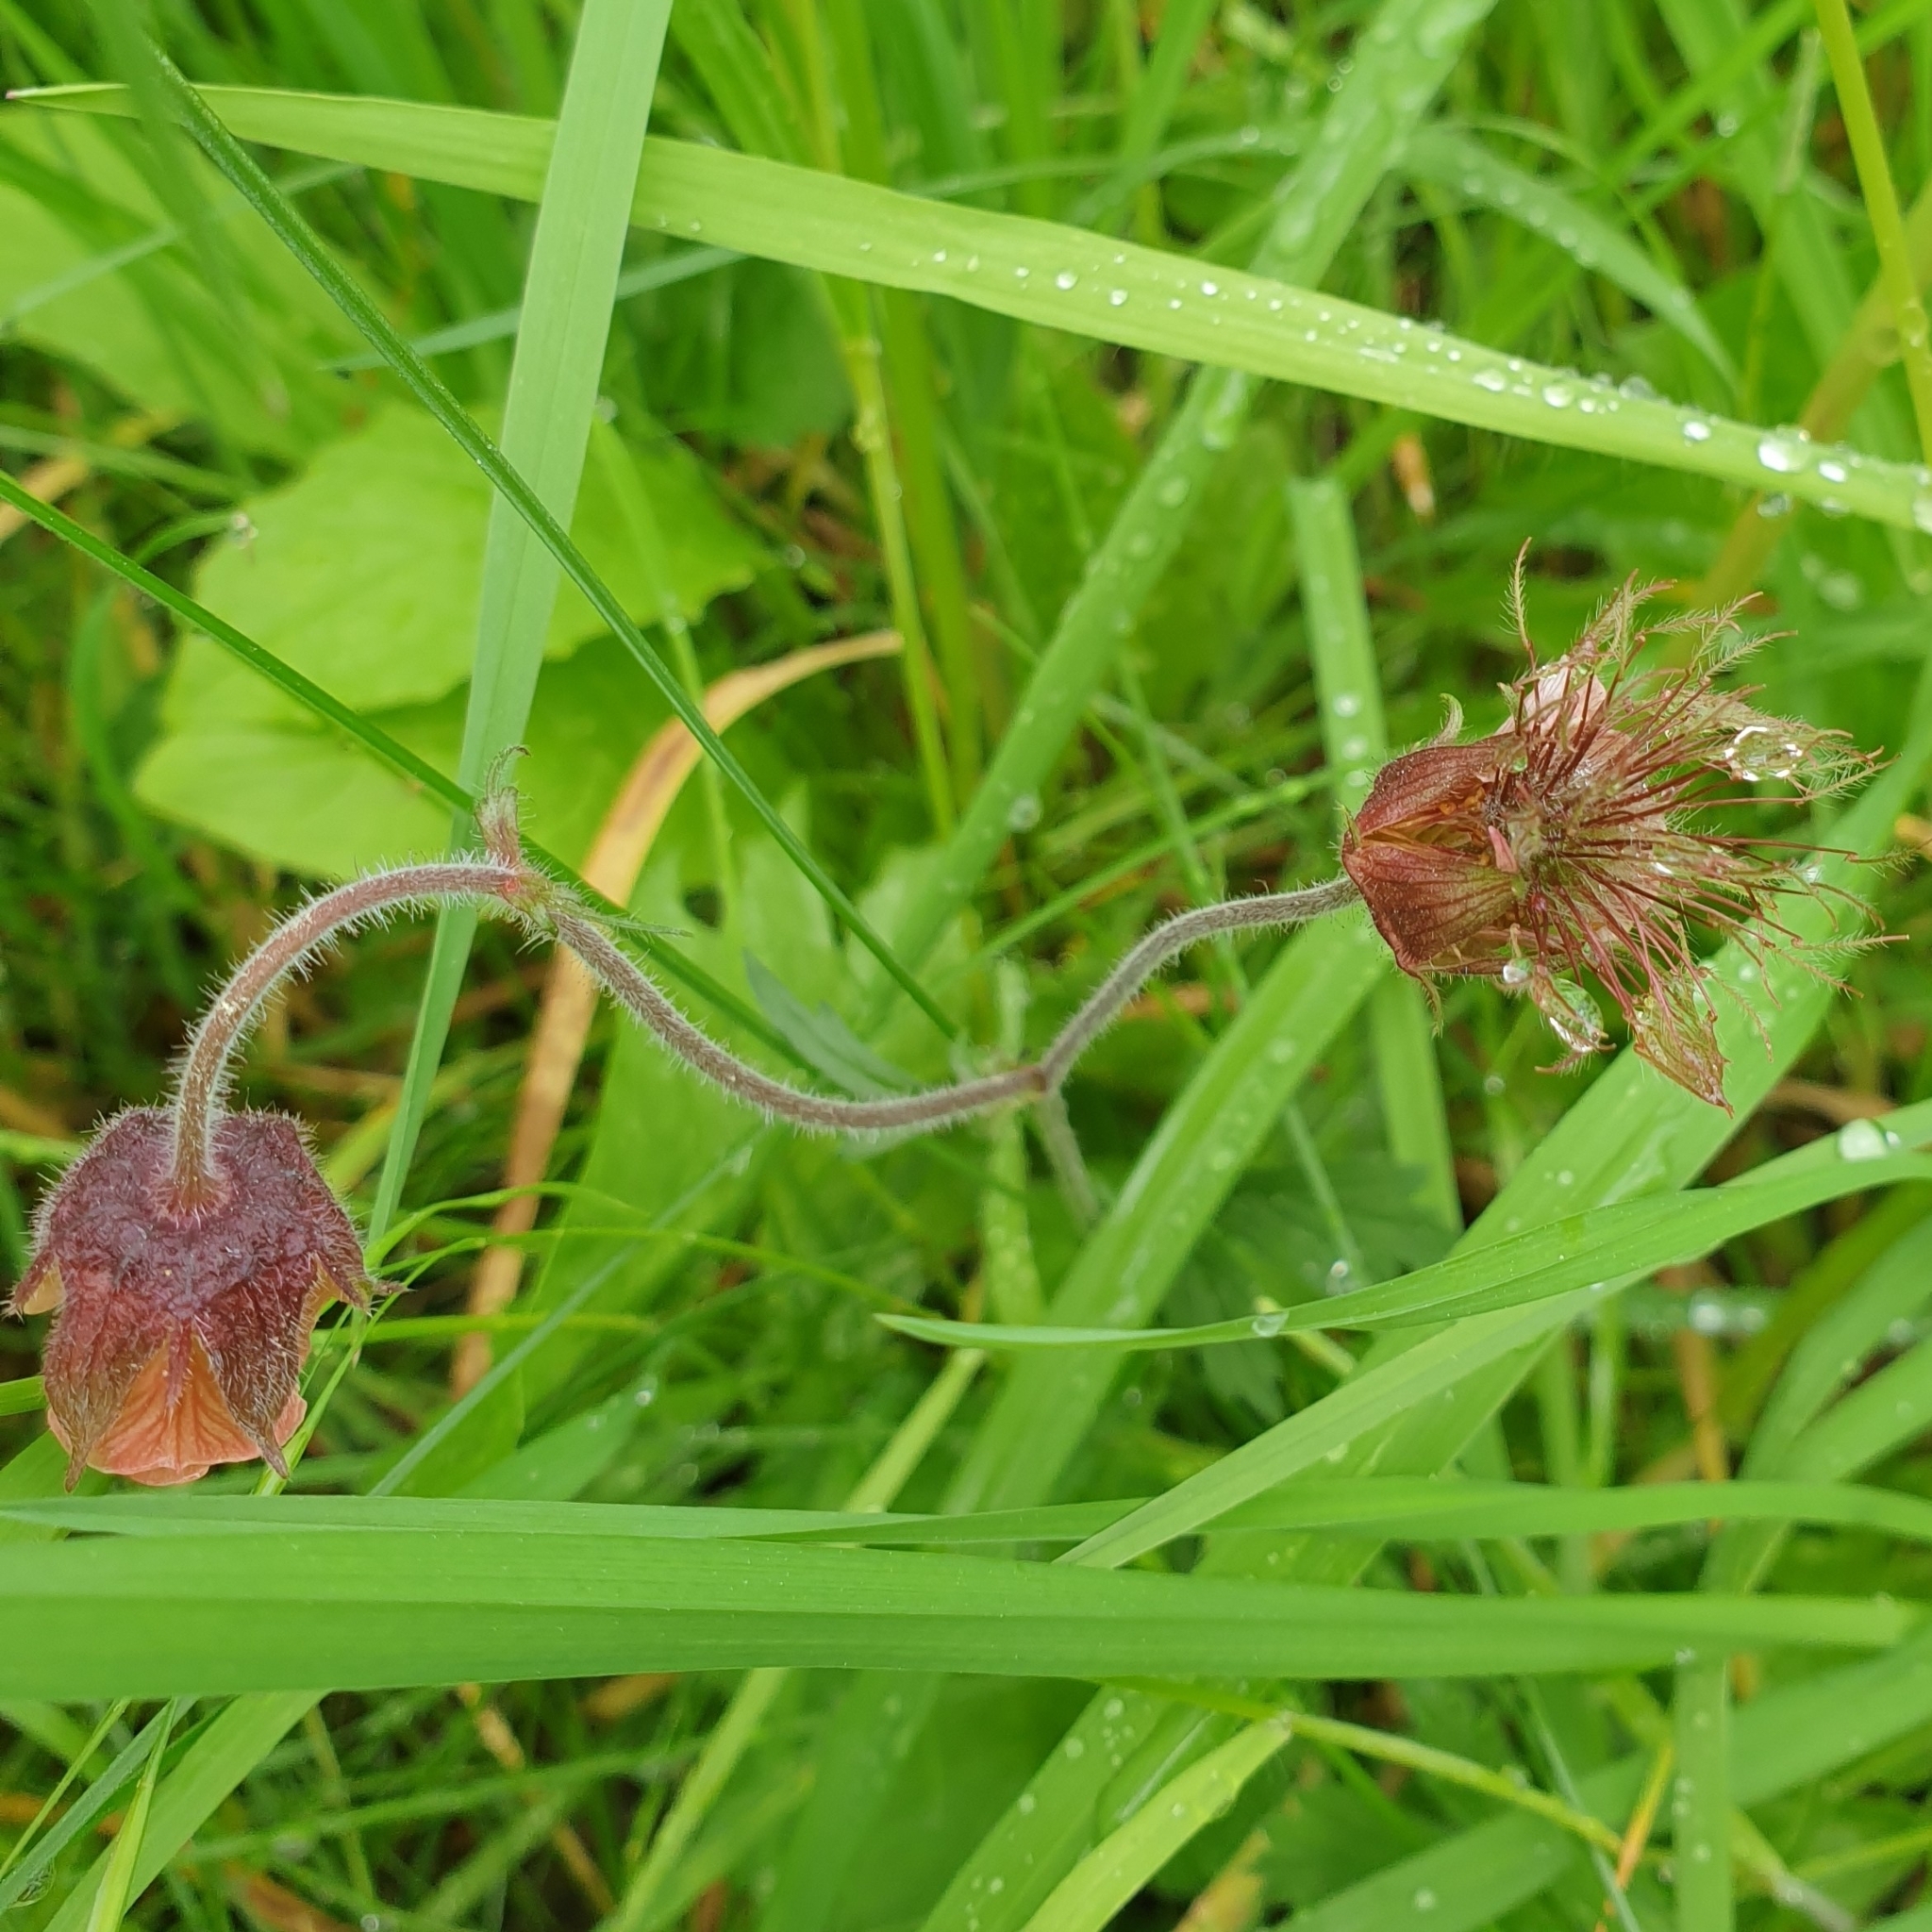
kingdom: Plantae
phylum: Tracheophyta
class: Magnoliopsida
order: Rosales
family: Rosaceae
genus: Geum
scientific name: Geum rivale
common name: Water avens
